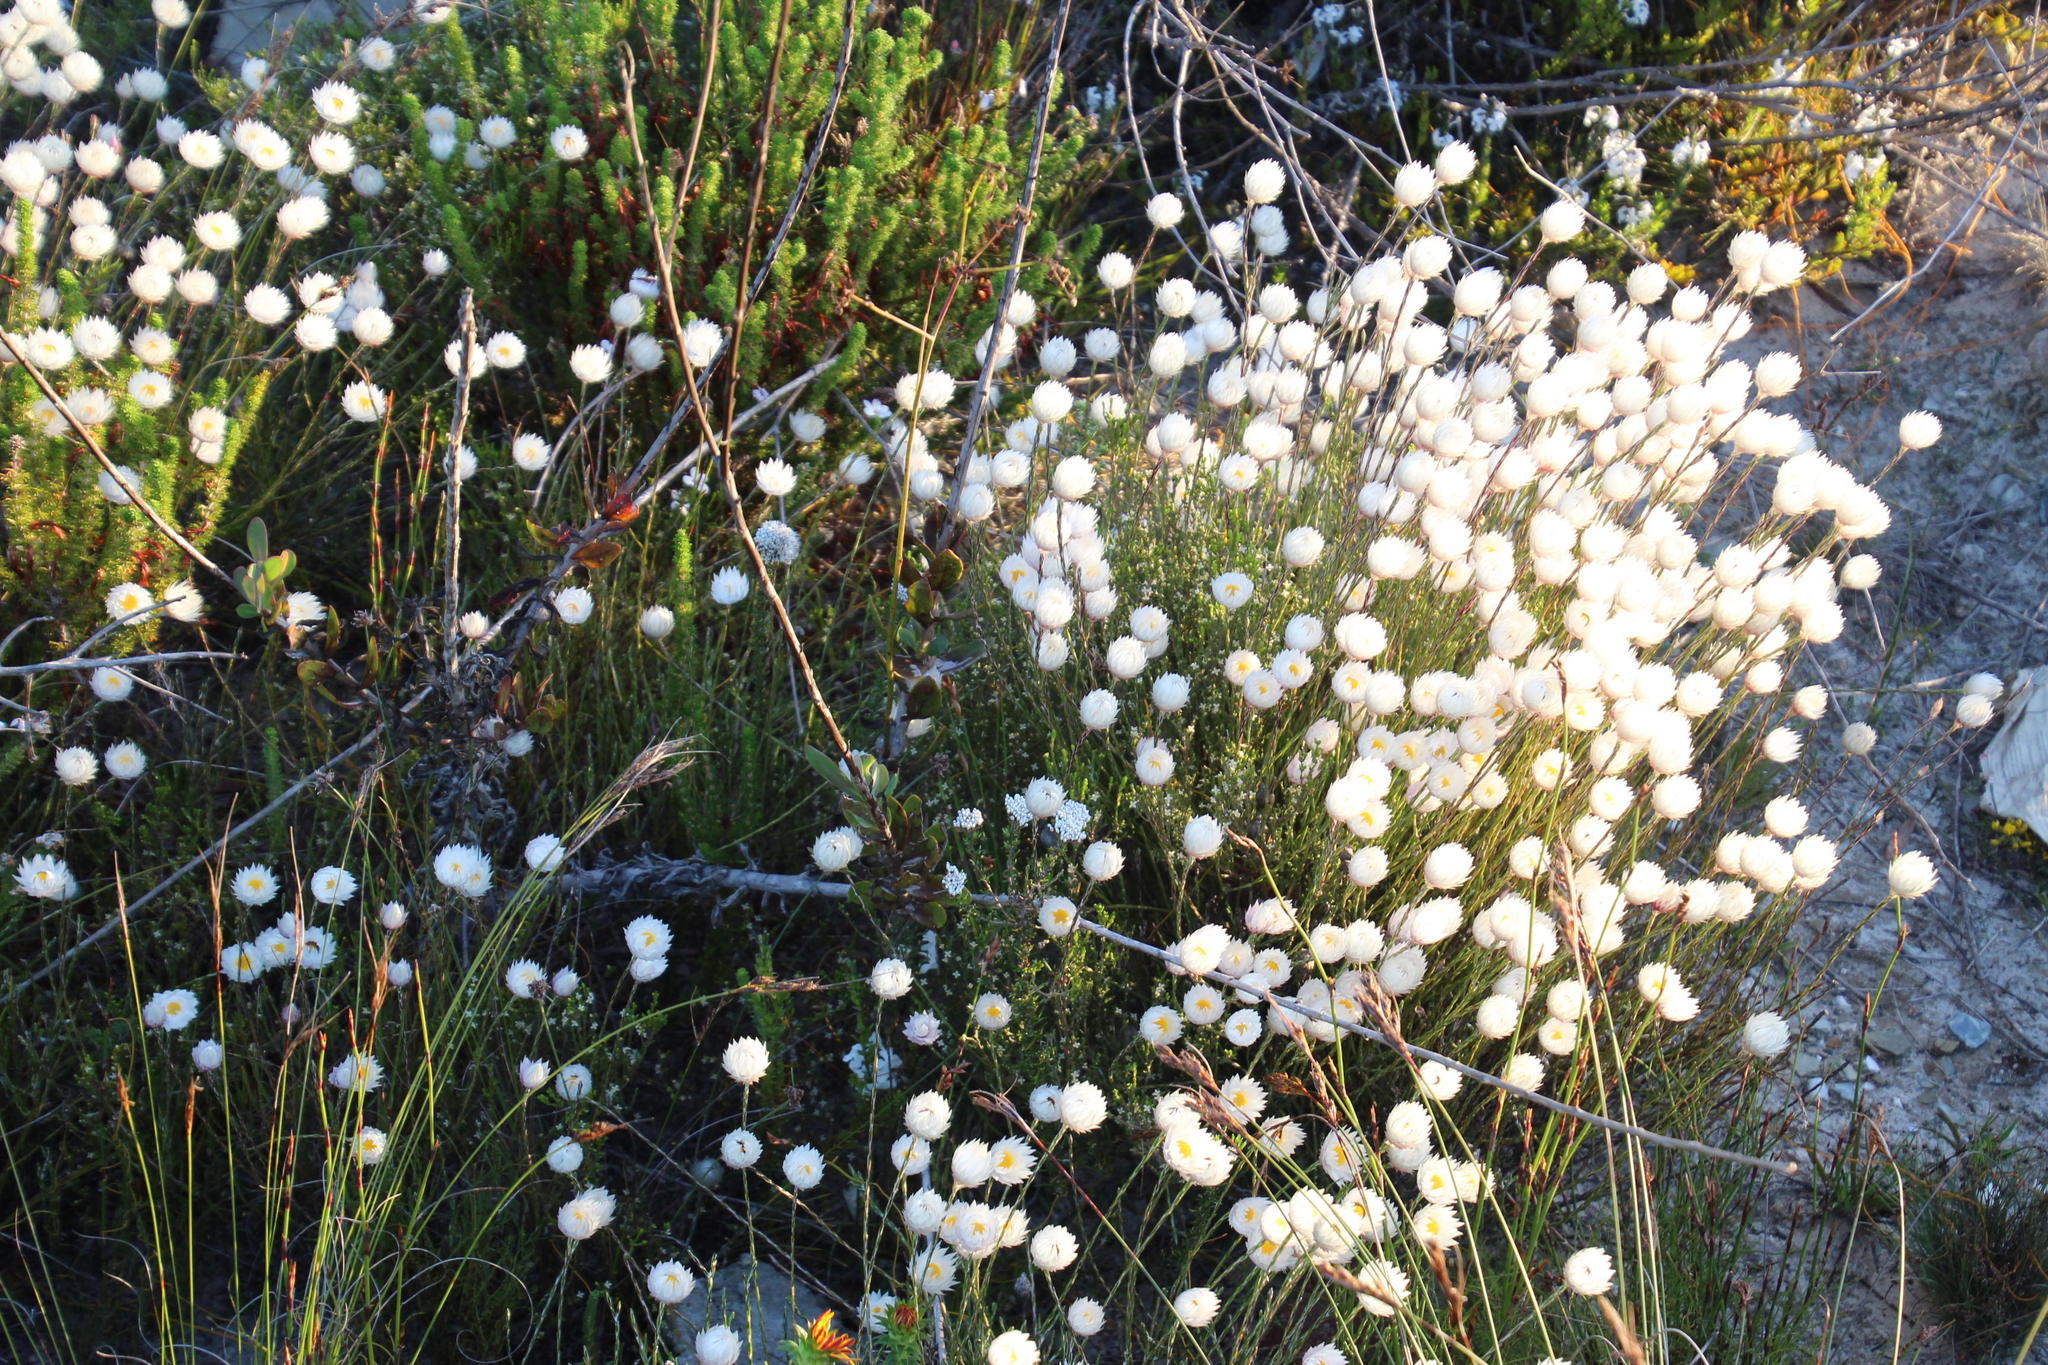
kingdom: Plantae
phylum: Tracheophyta
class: Magnoliopsida
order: Asterales
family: Asteraceae
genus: Edmondia
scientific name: Edmondia sesamoides
